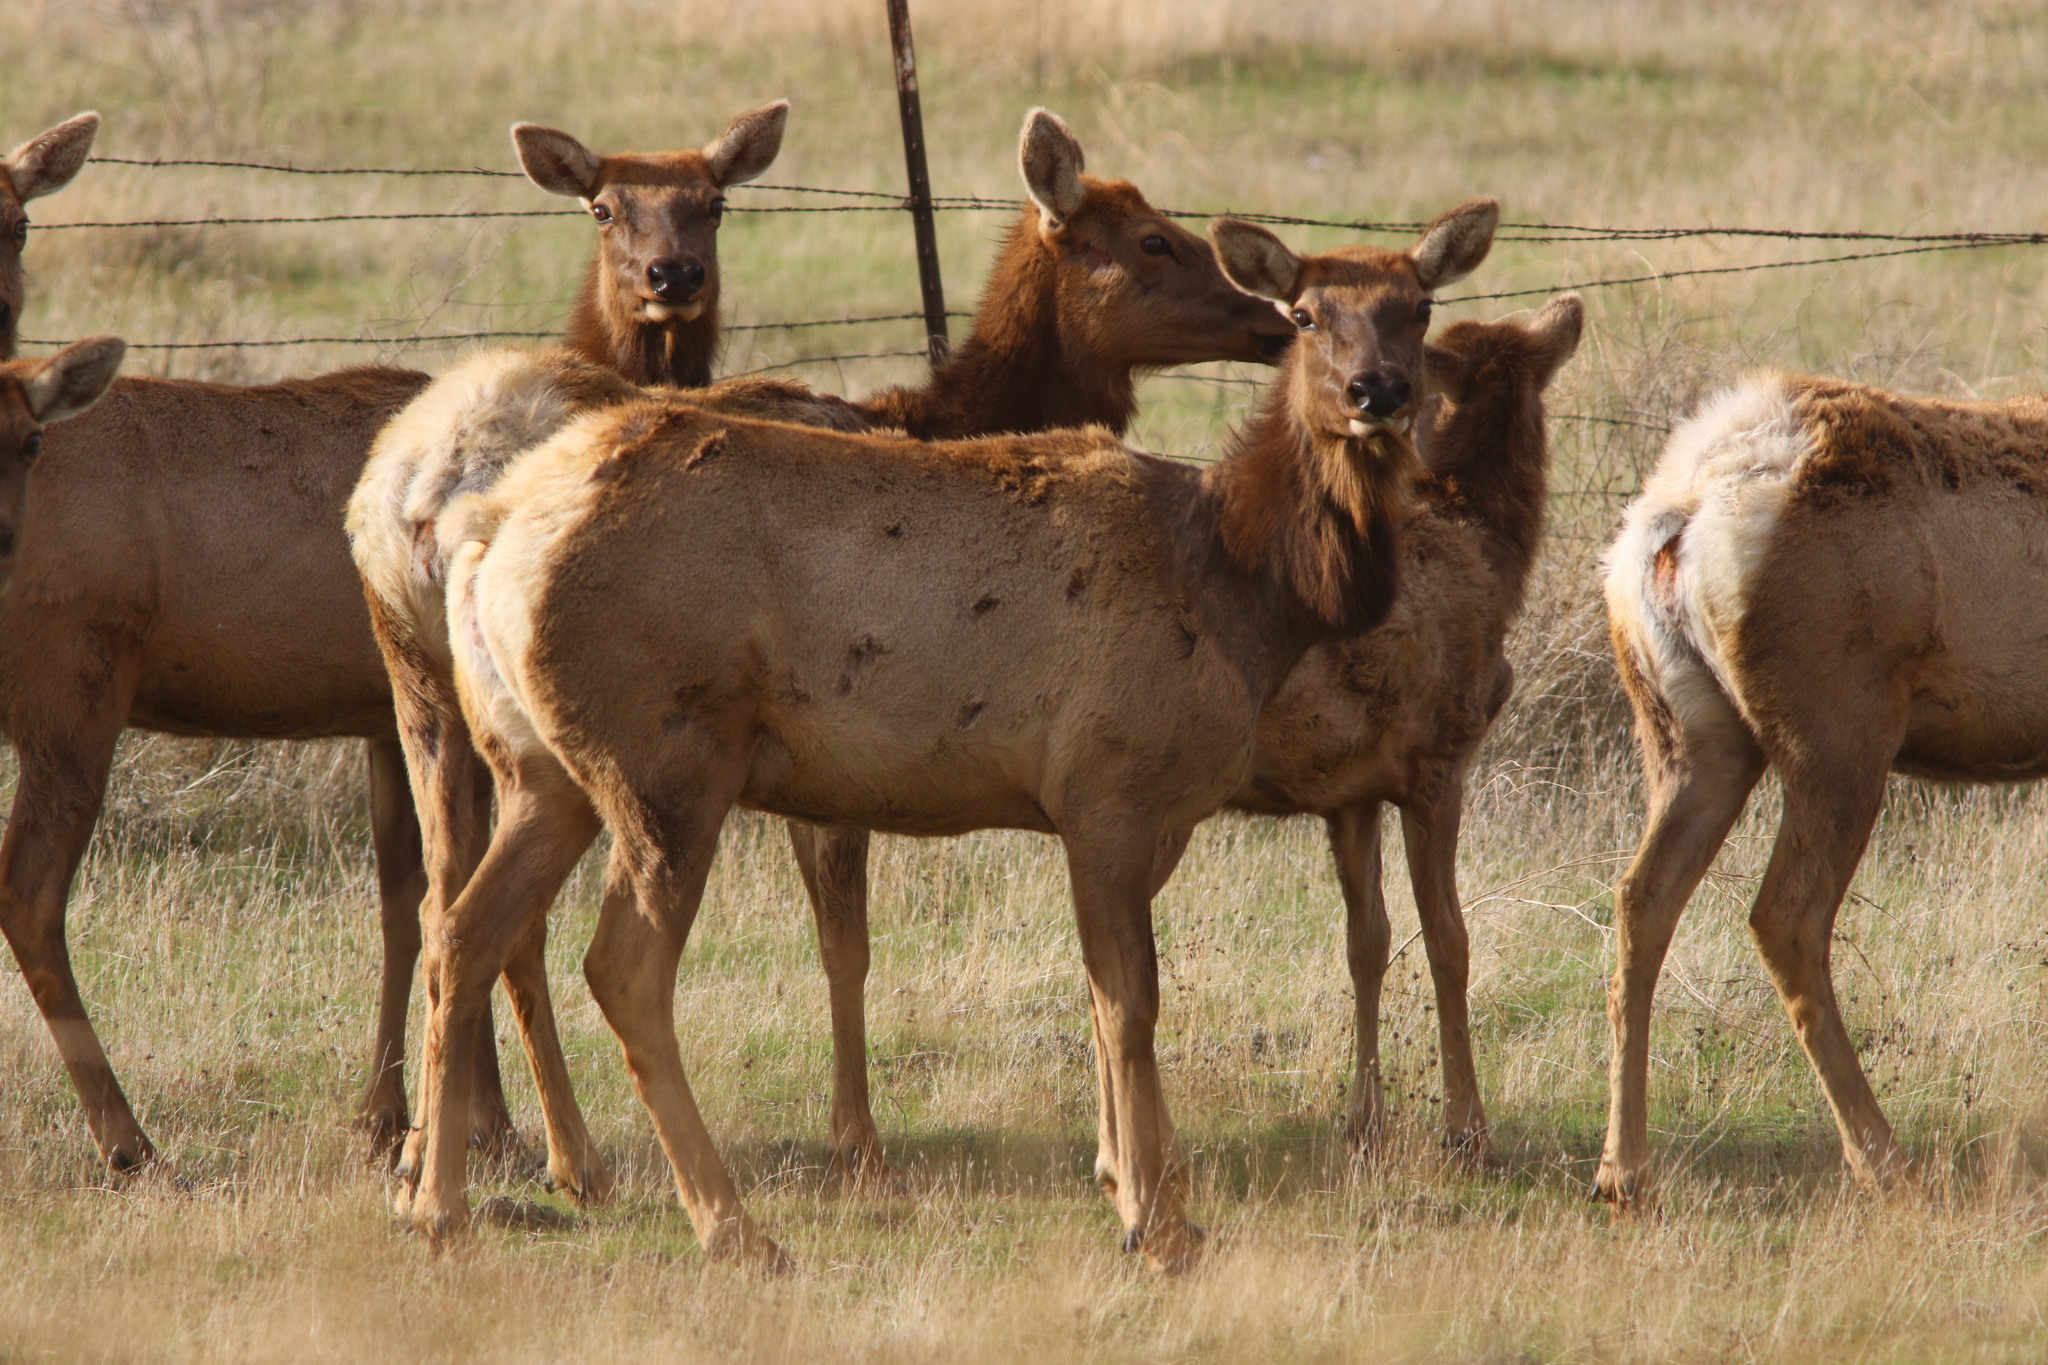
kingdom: Animalia
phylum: Chordata
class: Mammalia
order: Artiodactyla
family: Cervidae
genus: Cervus
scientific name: Cervus elaphus
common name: Red deer
